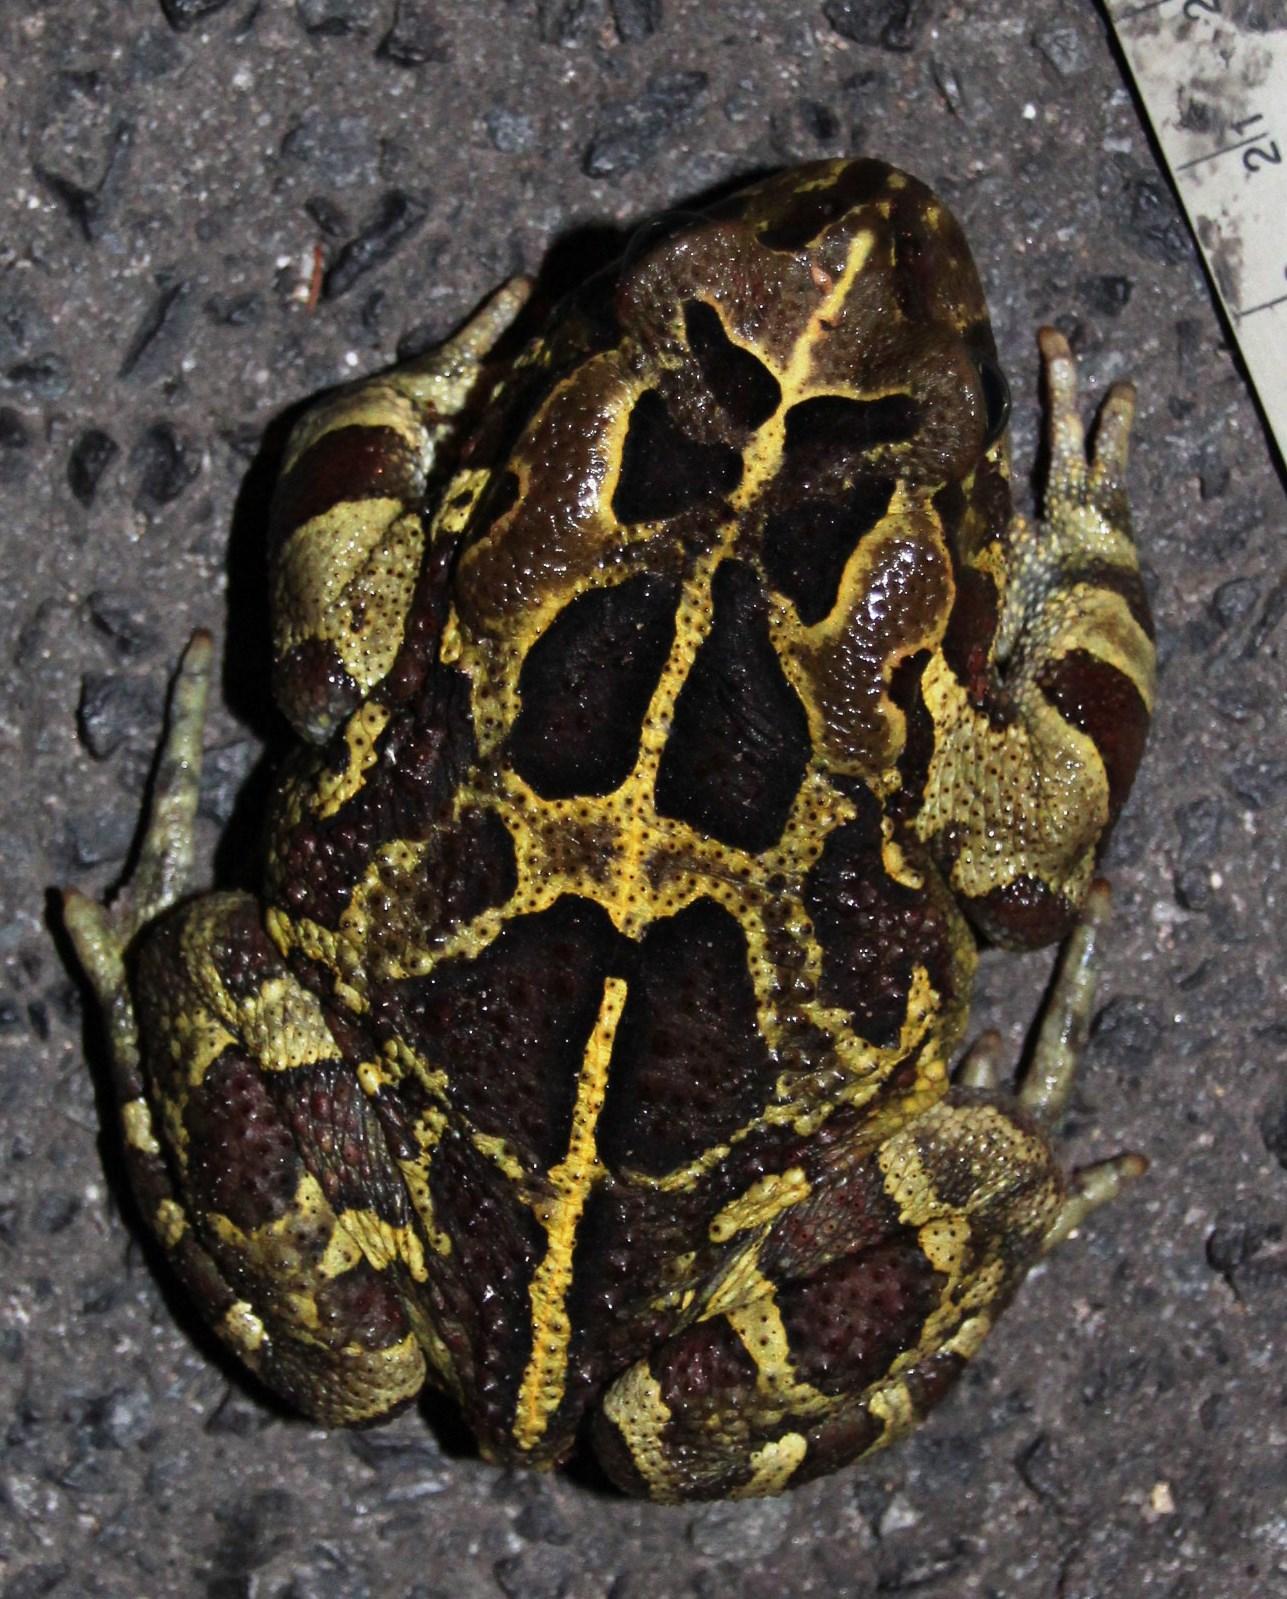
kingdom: Animalia
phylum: Chordata
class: Amphibia
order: Anura
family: Bufonidae
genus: Sclerophrys
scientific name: Sclerophrys pantherina
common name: Panther toad
